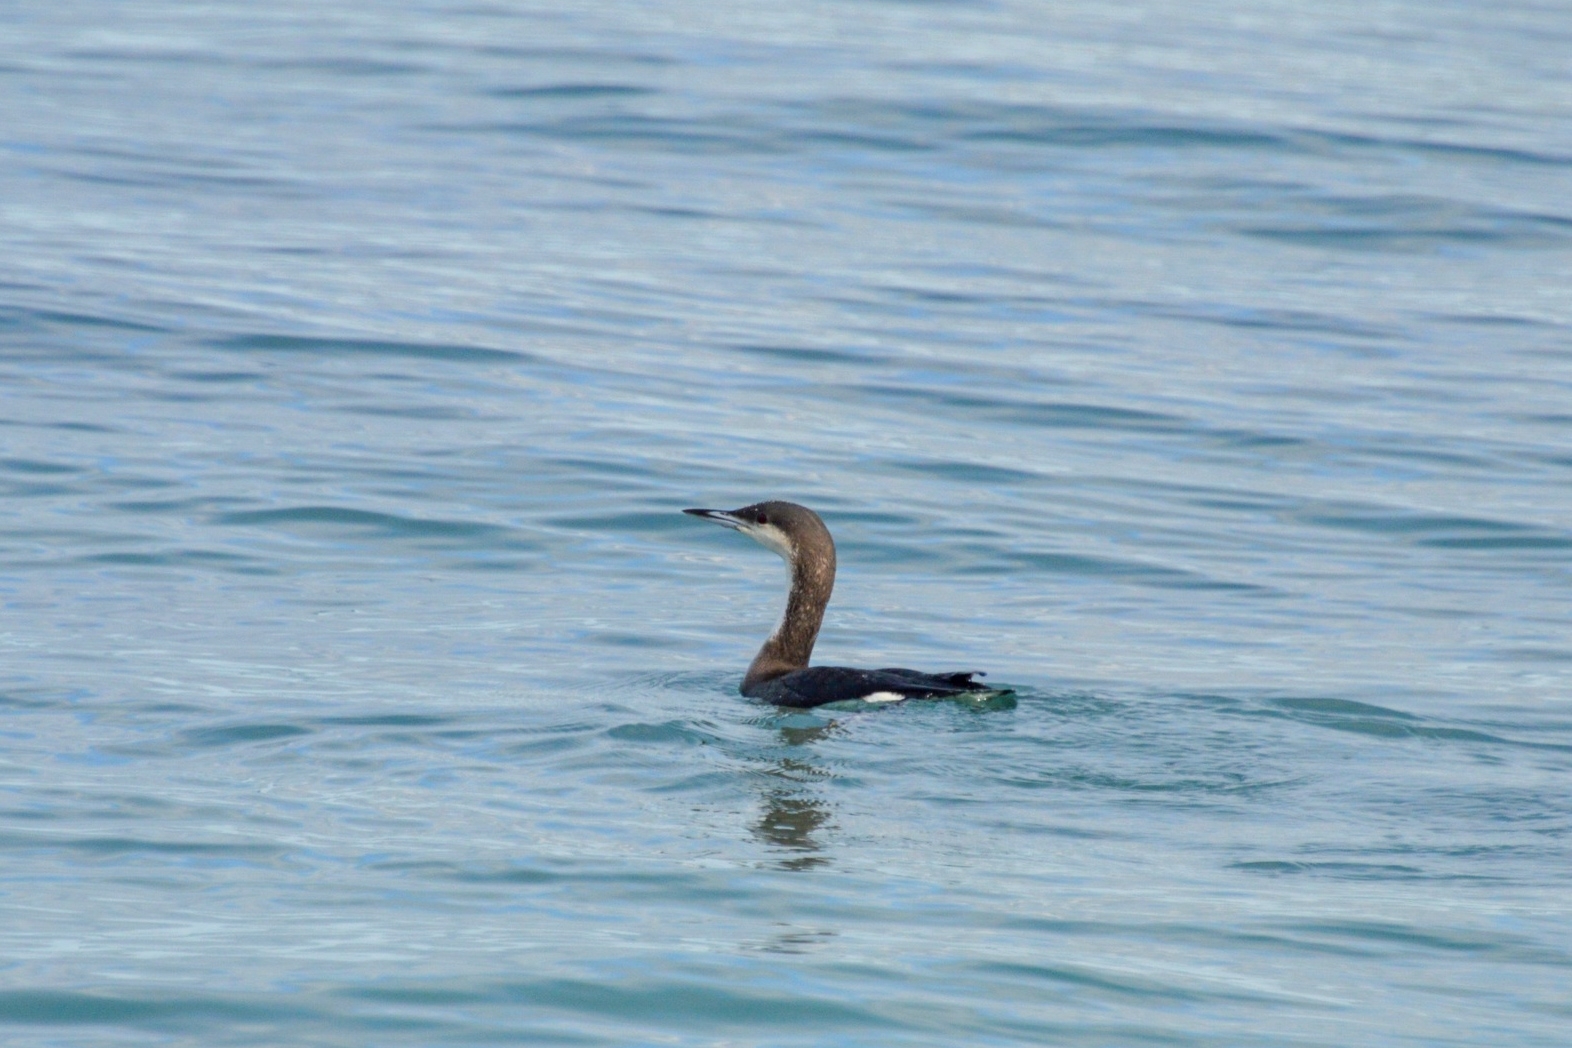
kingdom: Animalia
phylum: Chordata
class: Aves
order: Gaviiformes
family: Gaviidae
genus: Gavia
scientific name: Gavia arctica
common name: Black-throated loon
